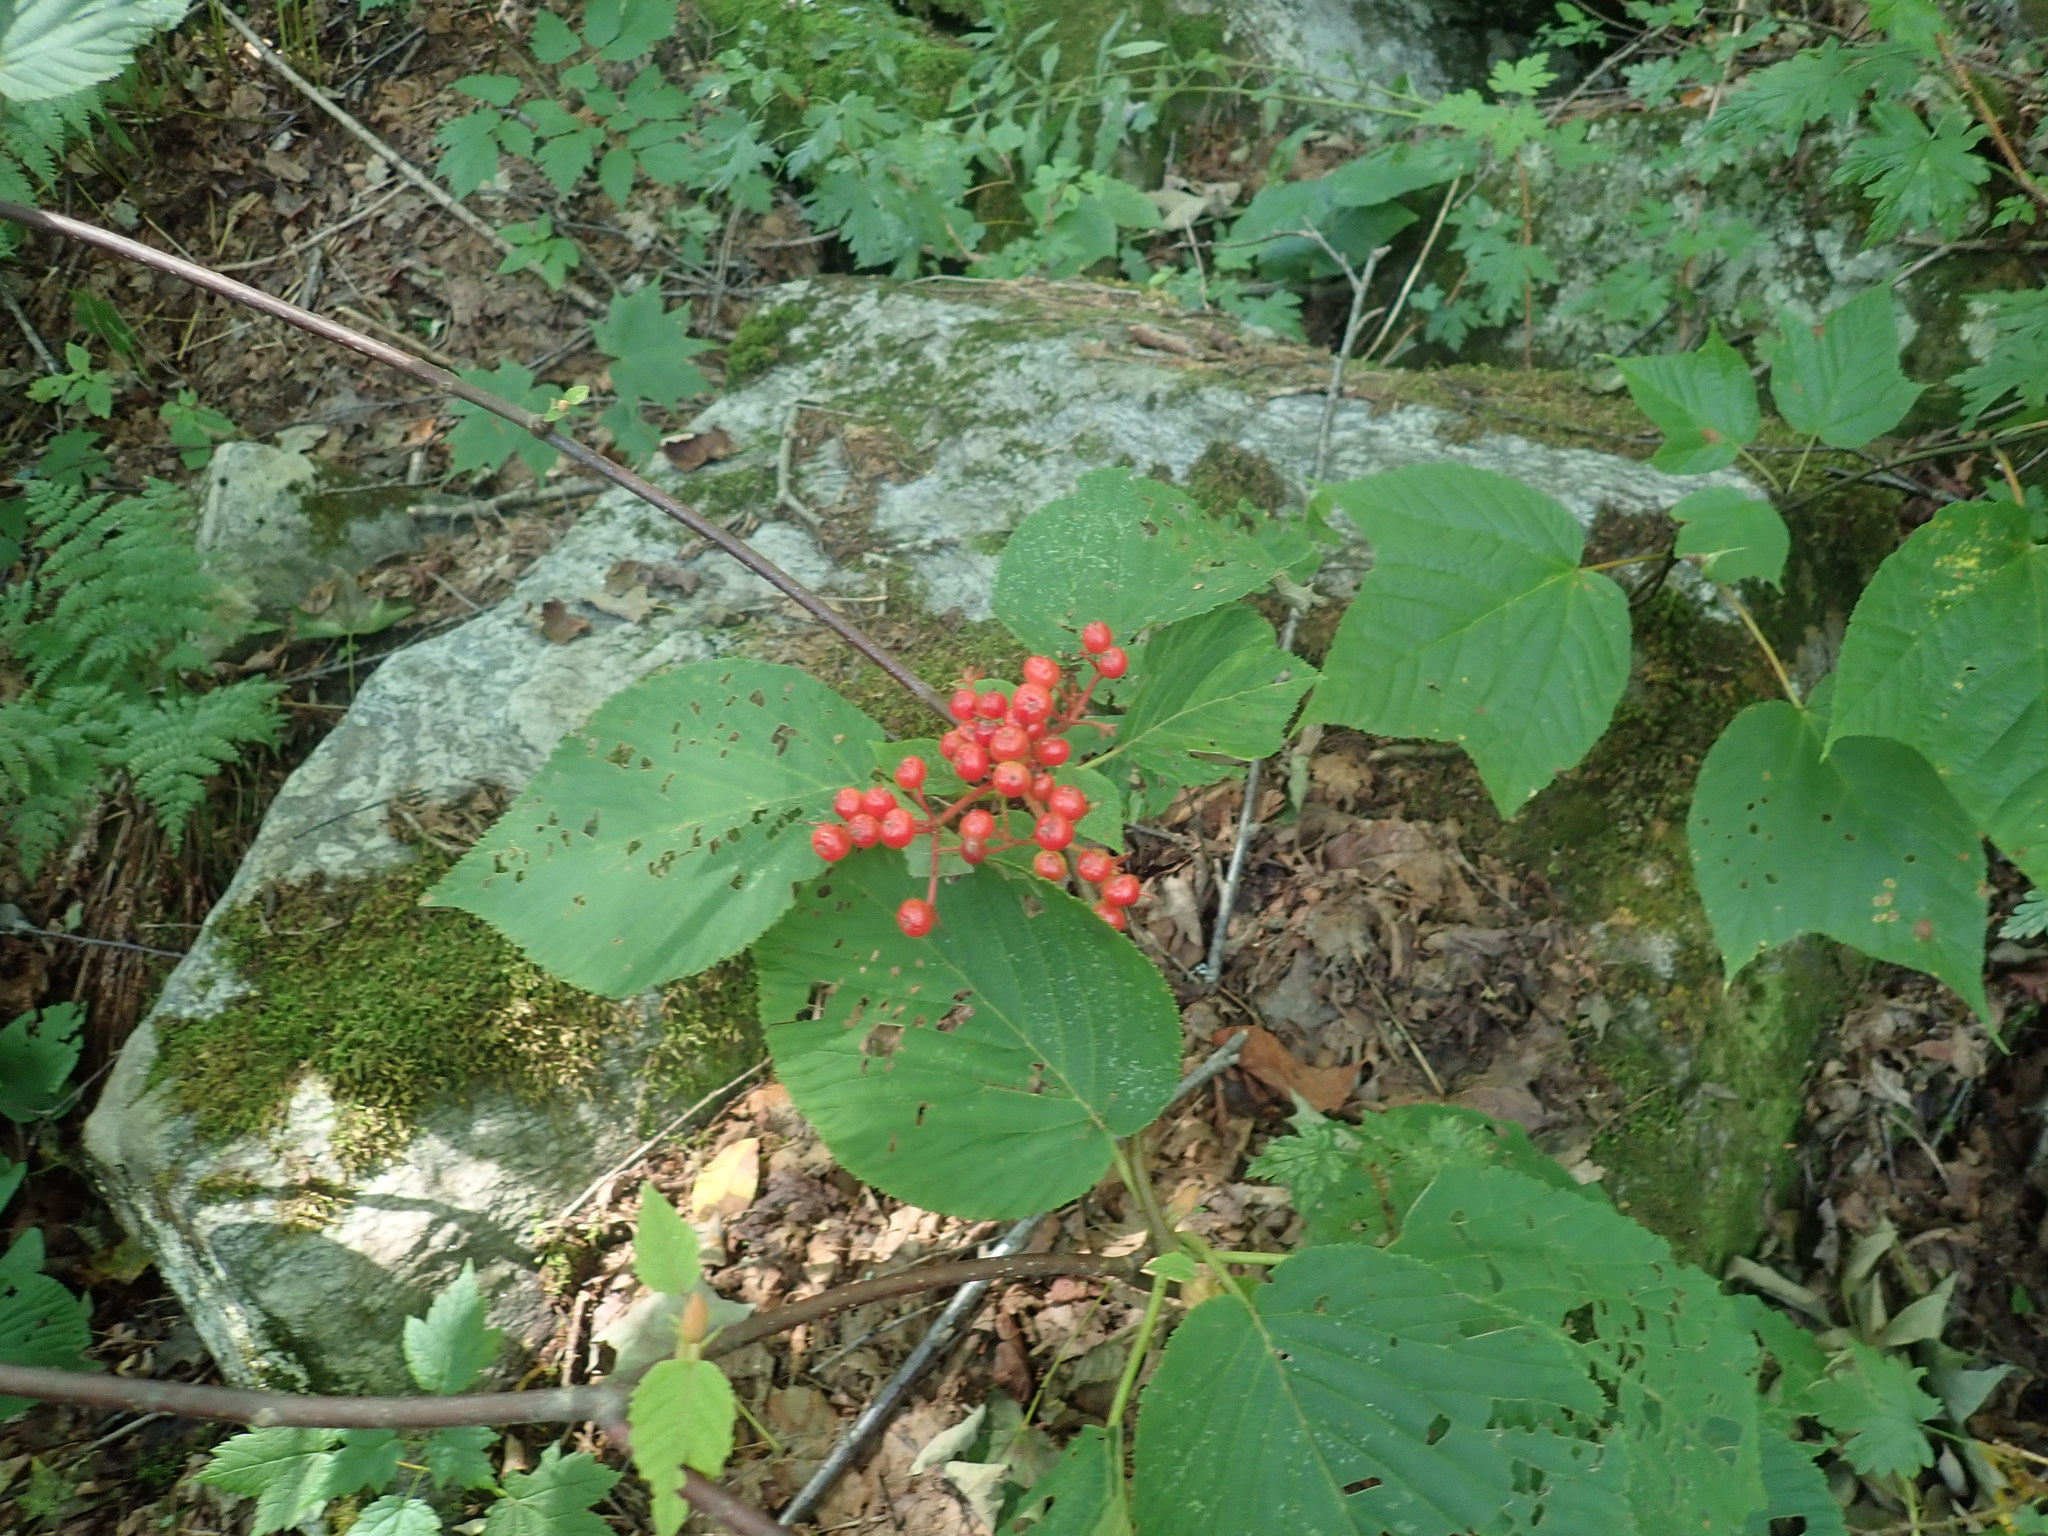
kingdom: Plantae
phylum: Tracheophyta
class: Magnoliopsida
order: Dipsacales
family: Viburnaceae
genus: Viburnum
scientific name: Viburnum lantanoides
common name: Hobblebush
